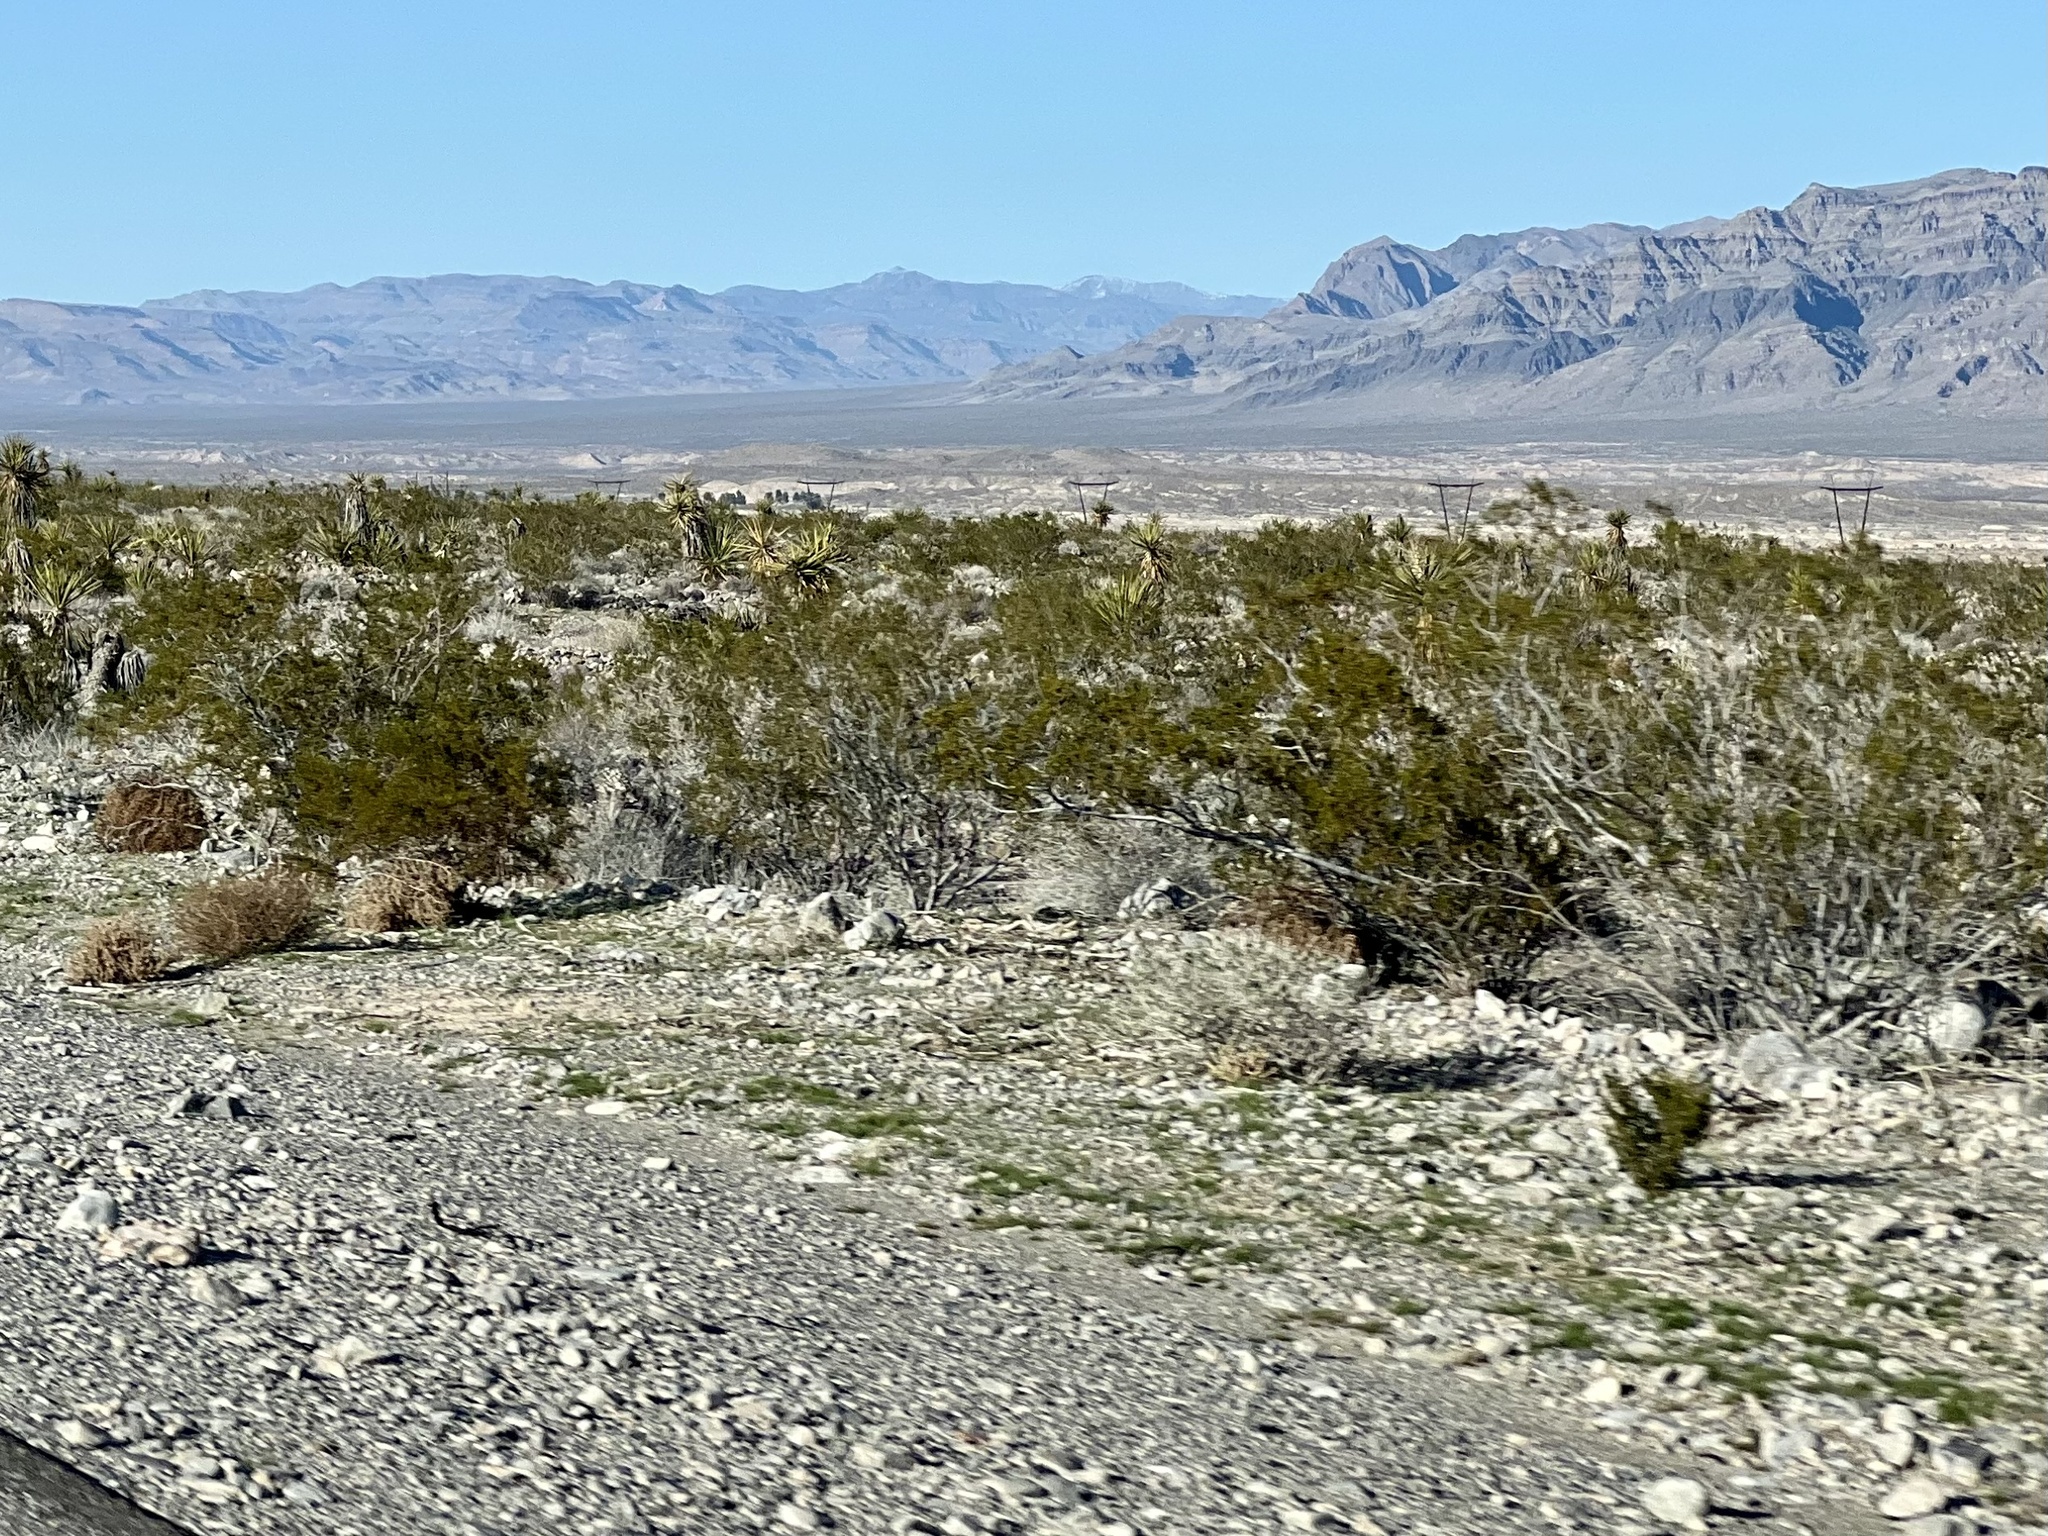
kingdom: Plantae
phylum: Tracheophyta
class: Magnoliopsida
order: Zygophyllales
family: Zygophyllaceae
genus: Larrea
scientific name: Larrea tridentata
